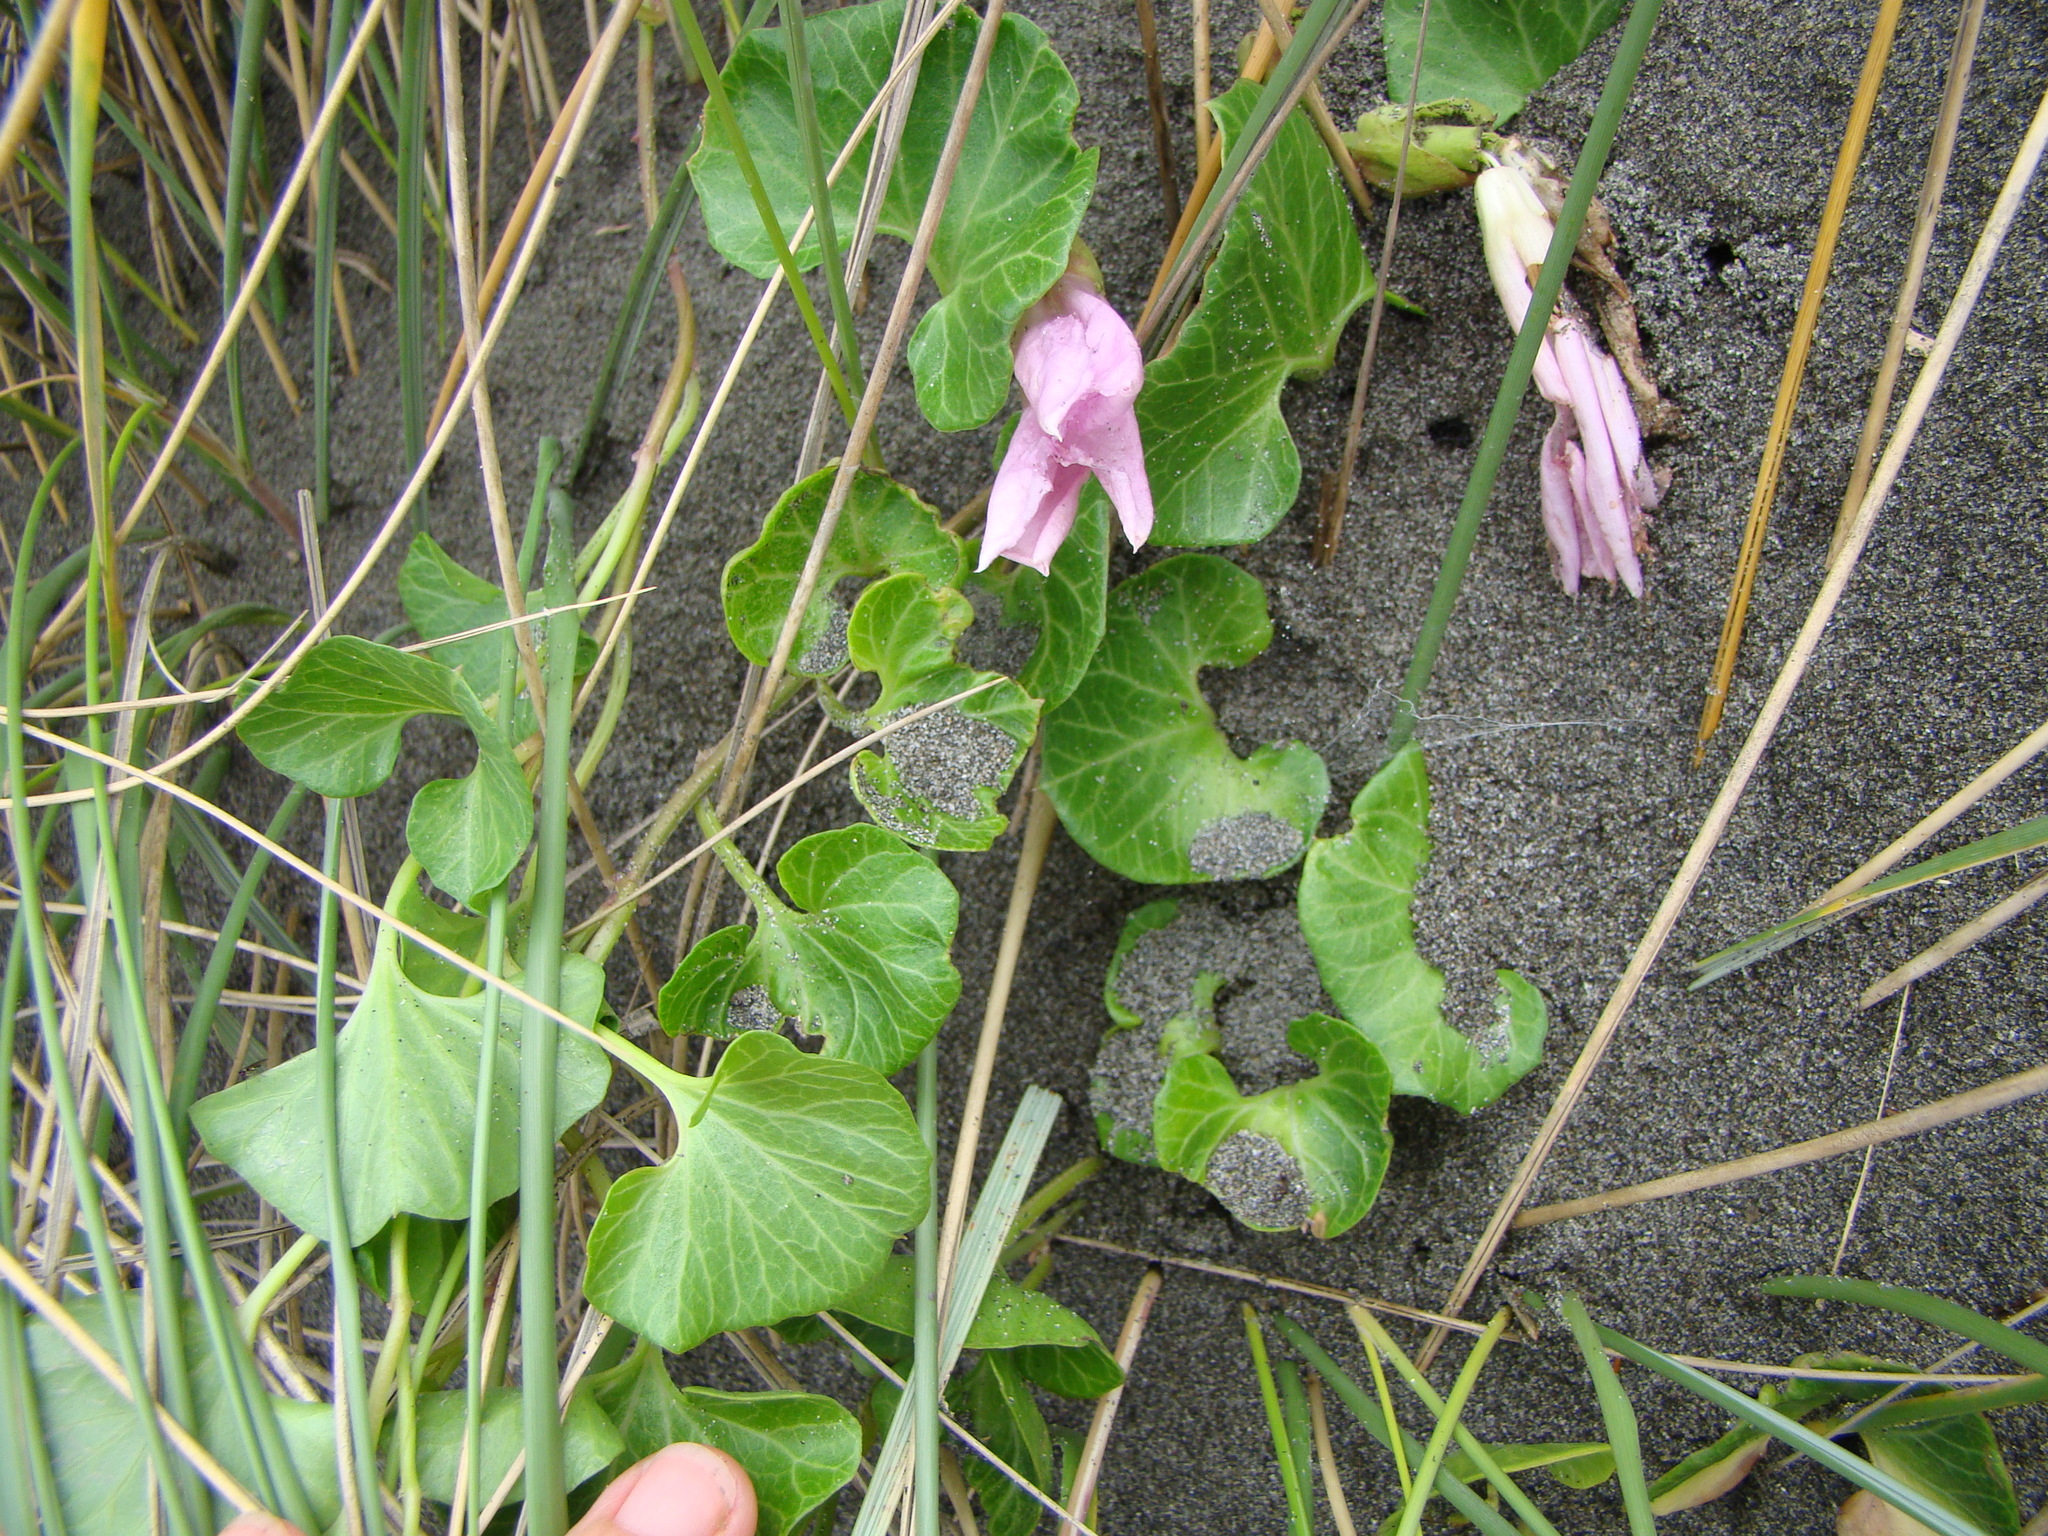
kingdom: Plantae
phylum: Tracheophyta
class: Magnoliopsida
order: Solanales
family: Convolvulaceae
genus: Calystegia
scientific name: Calystegia soldanella
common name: Sea bindweed
